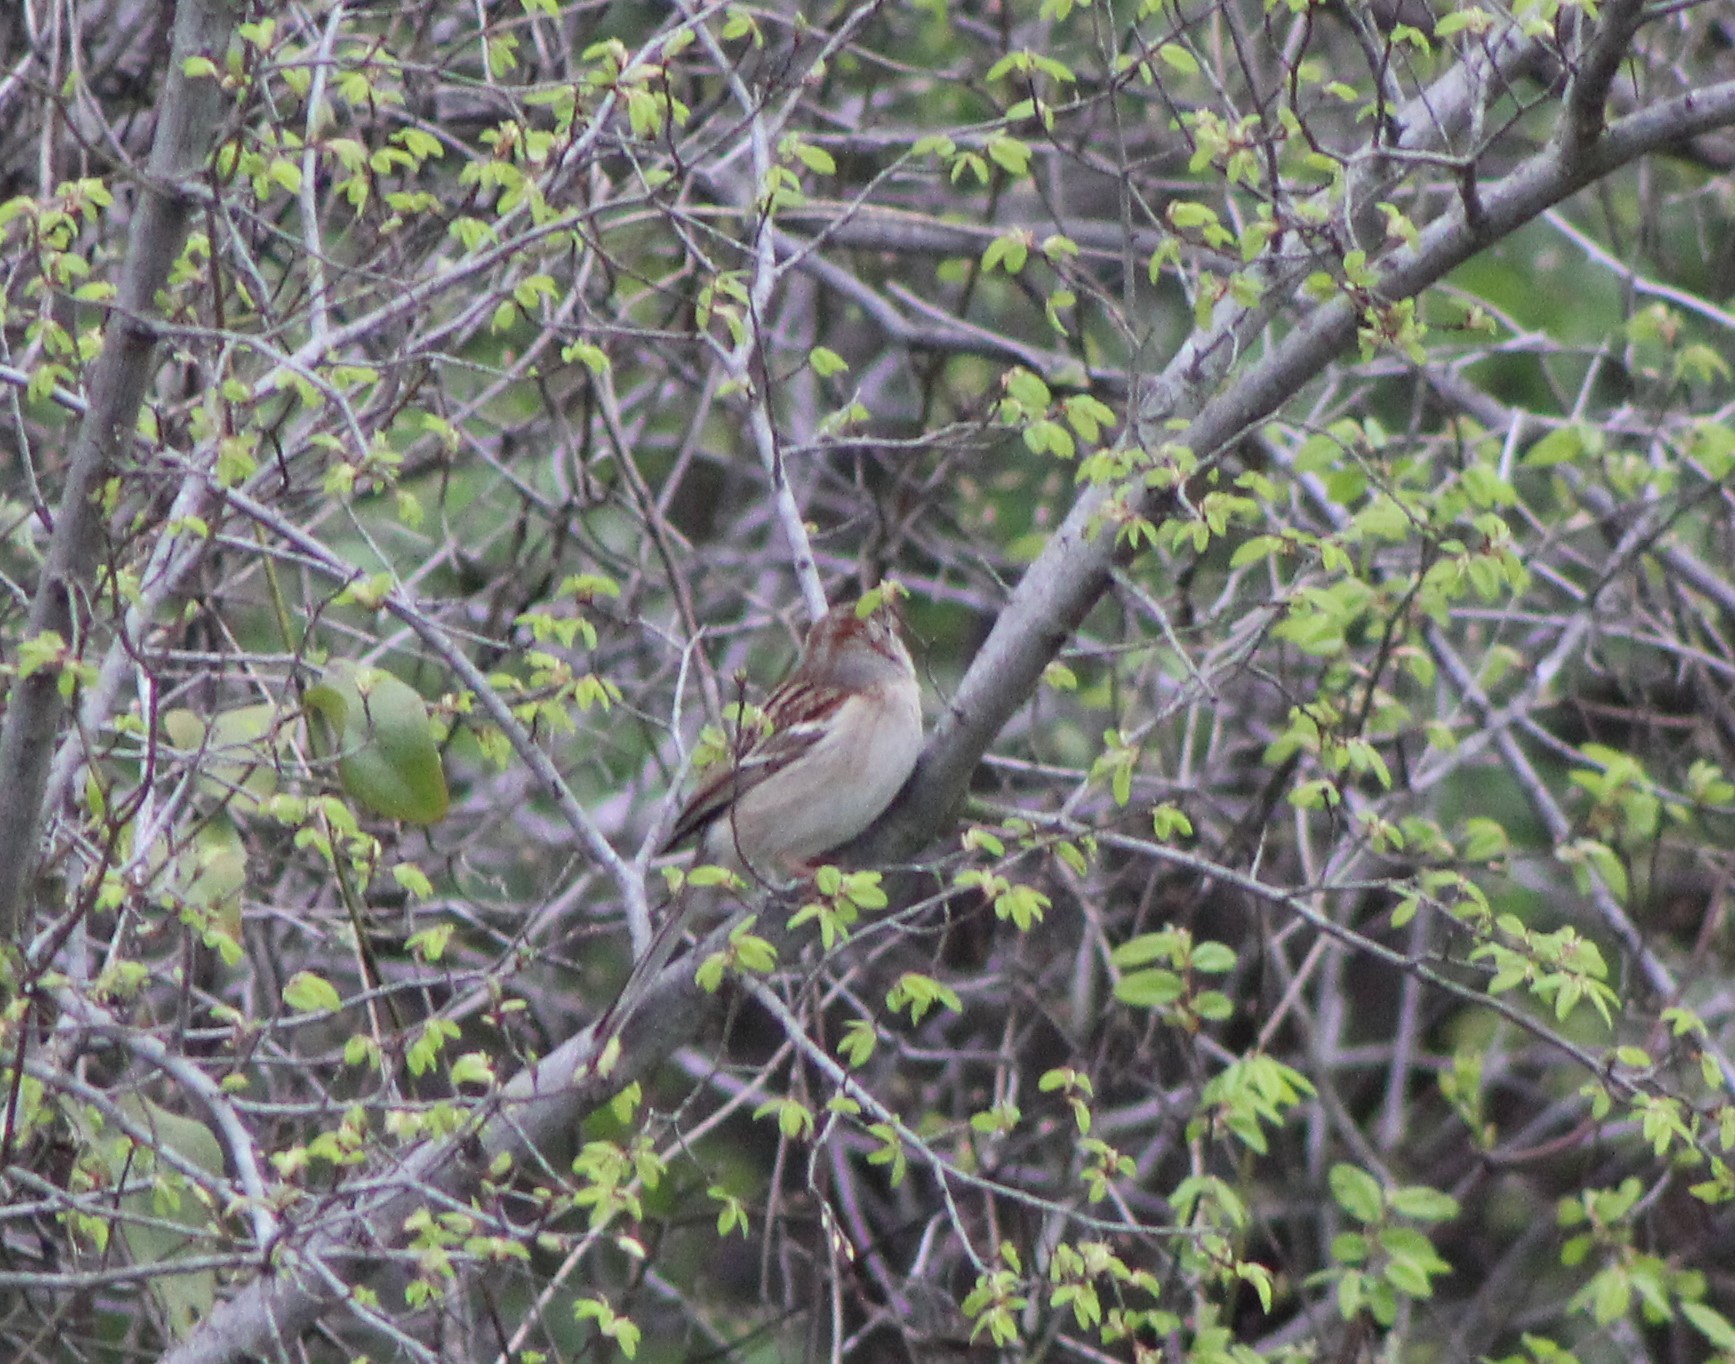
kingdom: Animalia
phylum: Chordata
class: Aves
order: Passeriformes
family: Passerellidae
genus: Spizella
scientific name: Spizella pusilla
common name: Field sparrow
